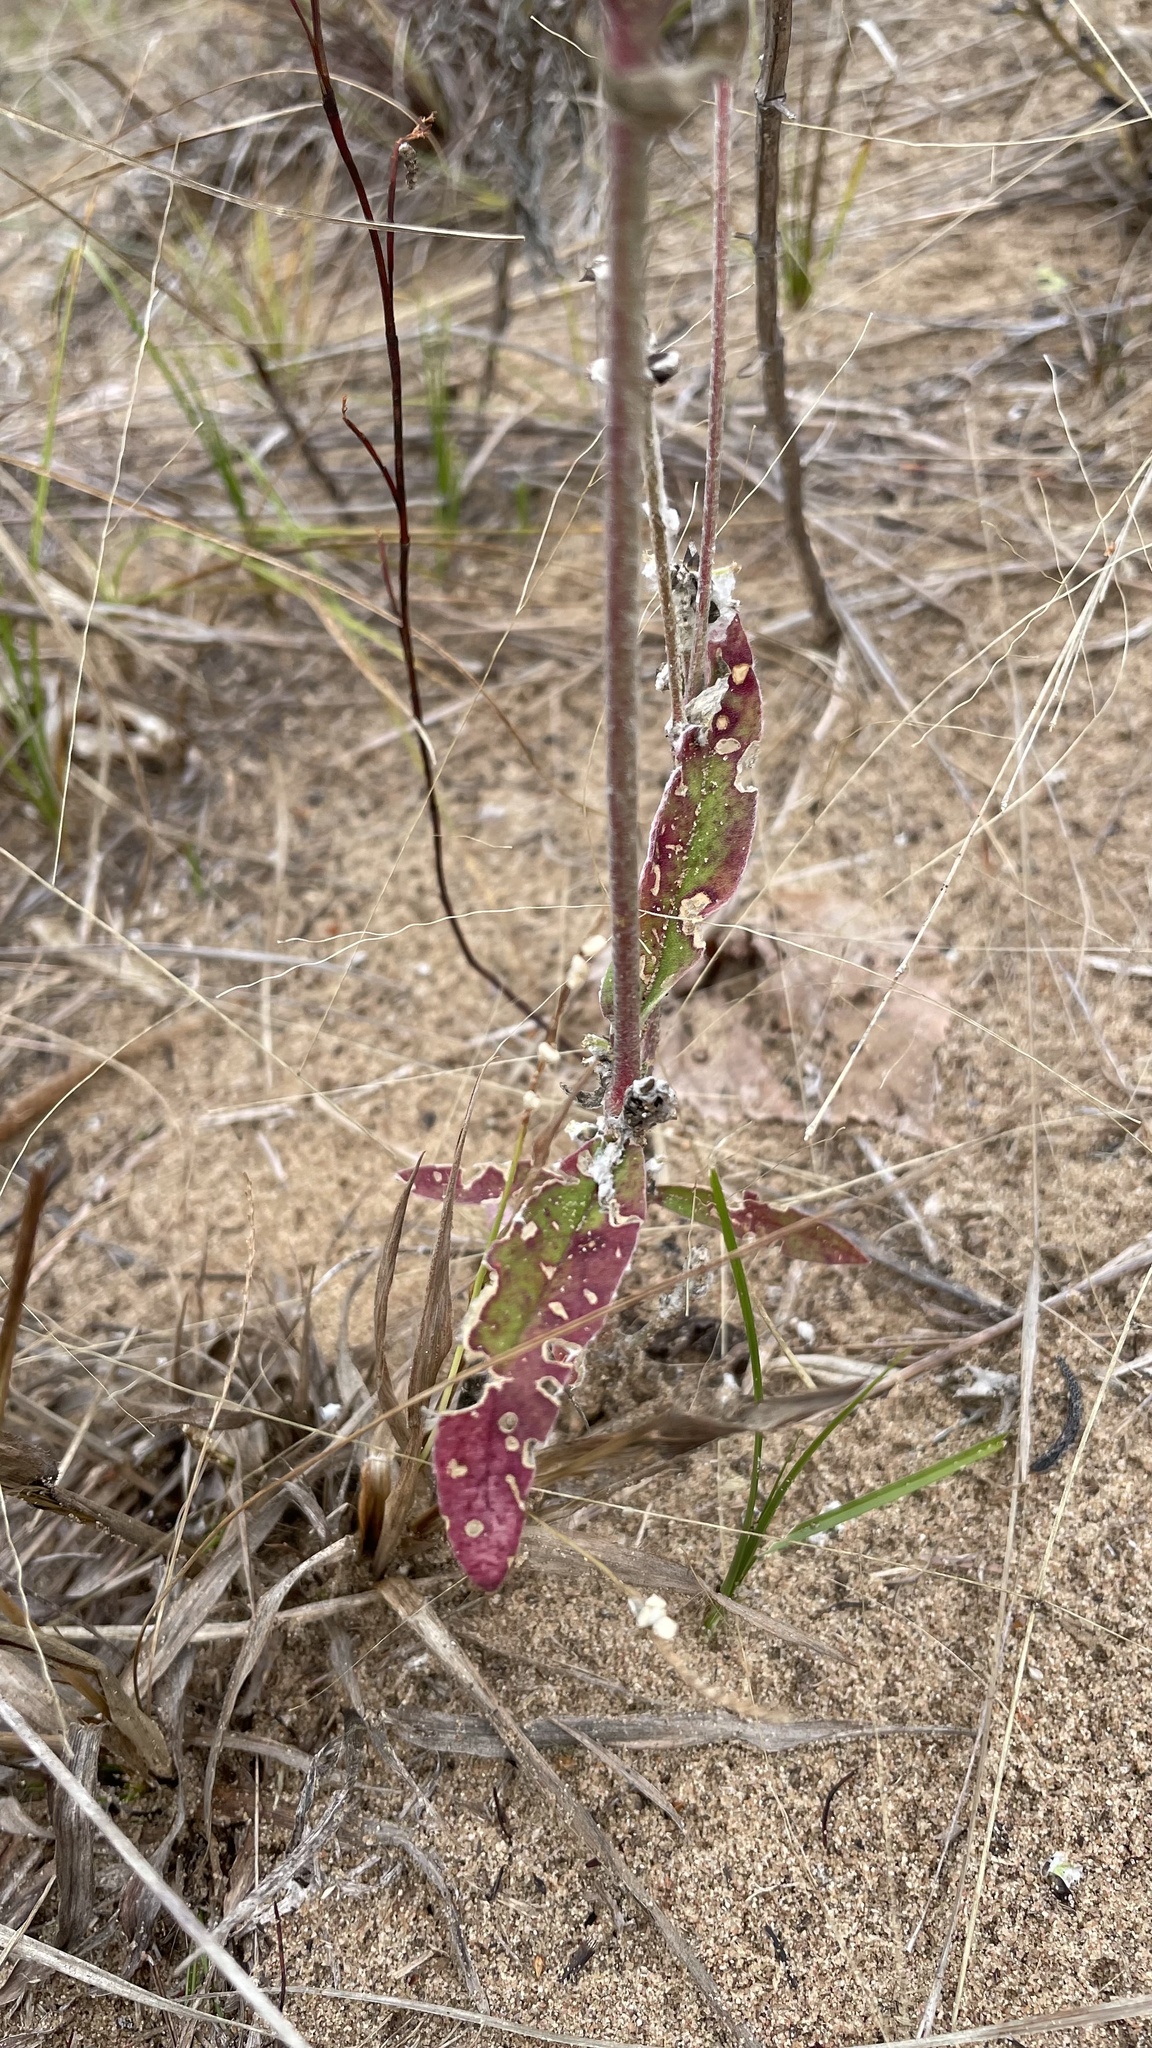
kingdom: Plantae
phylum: Tracheophyta
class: Magnoliopsida
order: Caryophyllales
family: Amaranthaceae
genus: Froelichia
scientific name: Froelichia floridana
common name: Florida snake-cotton
